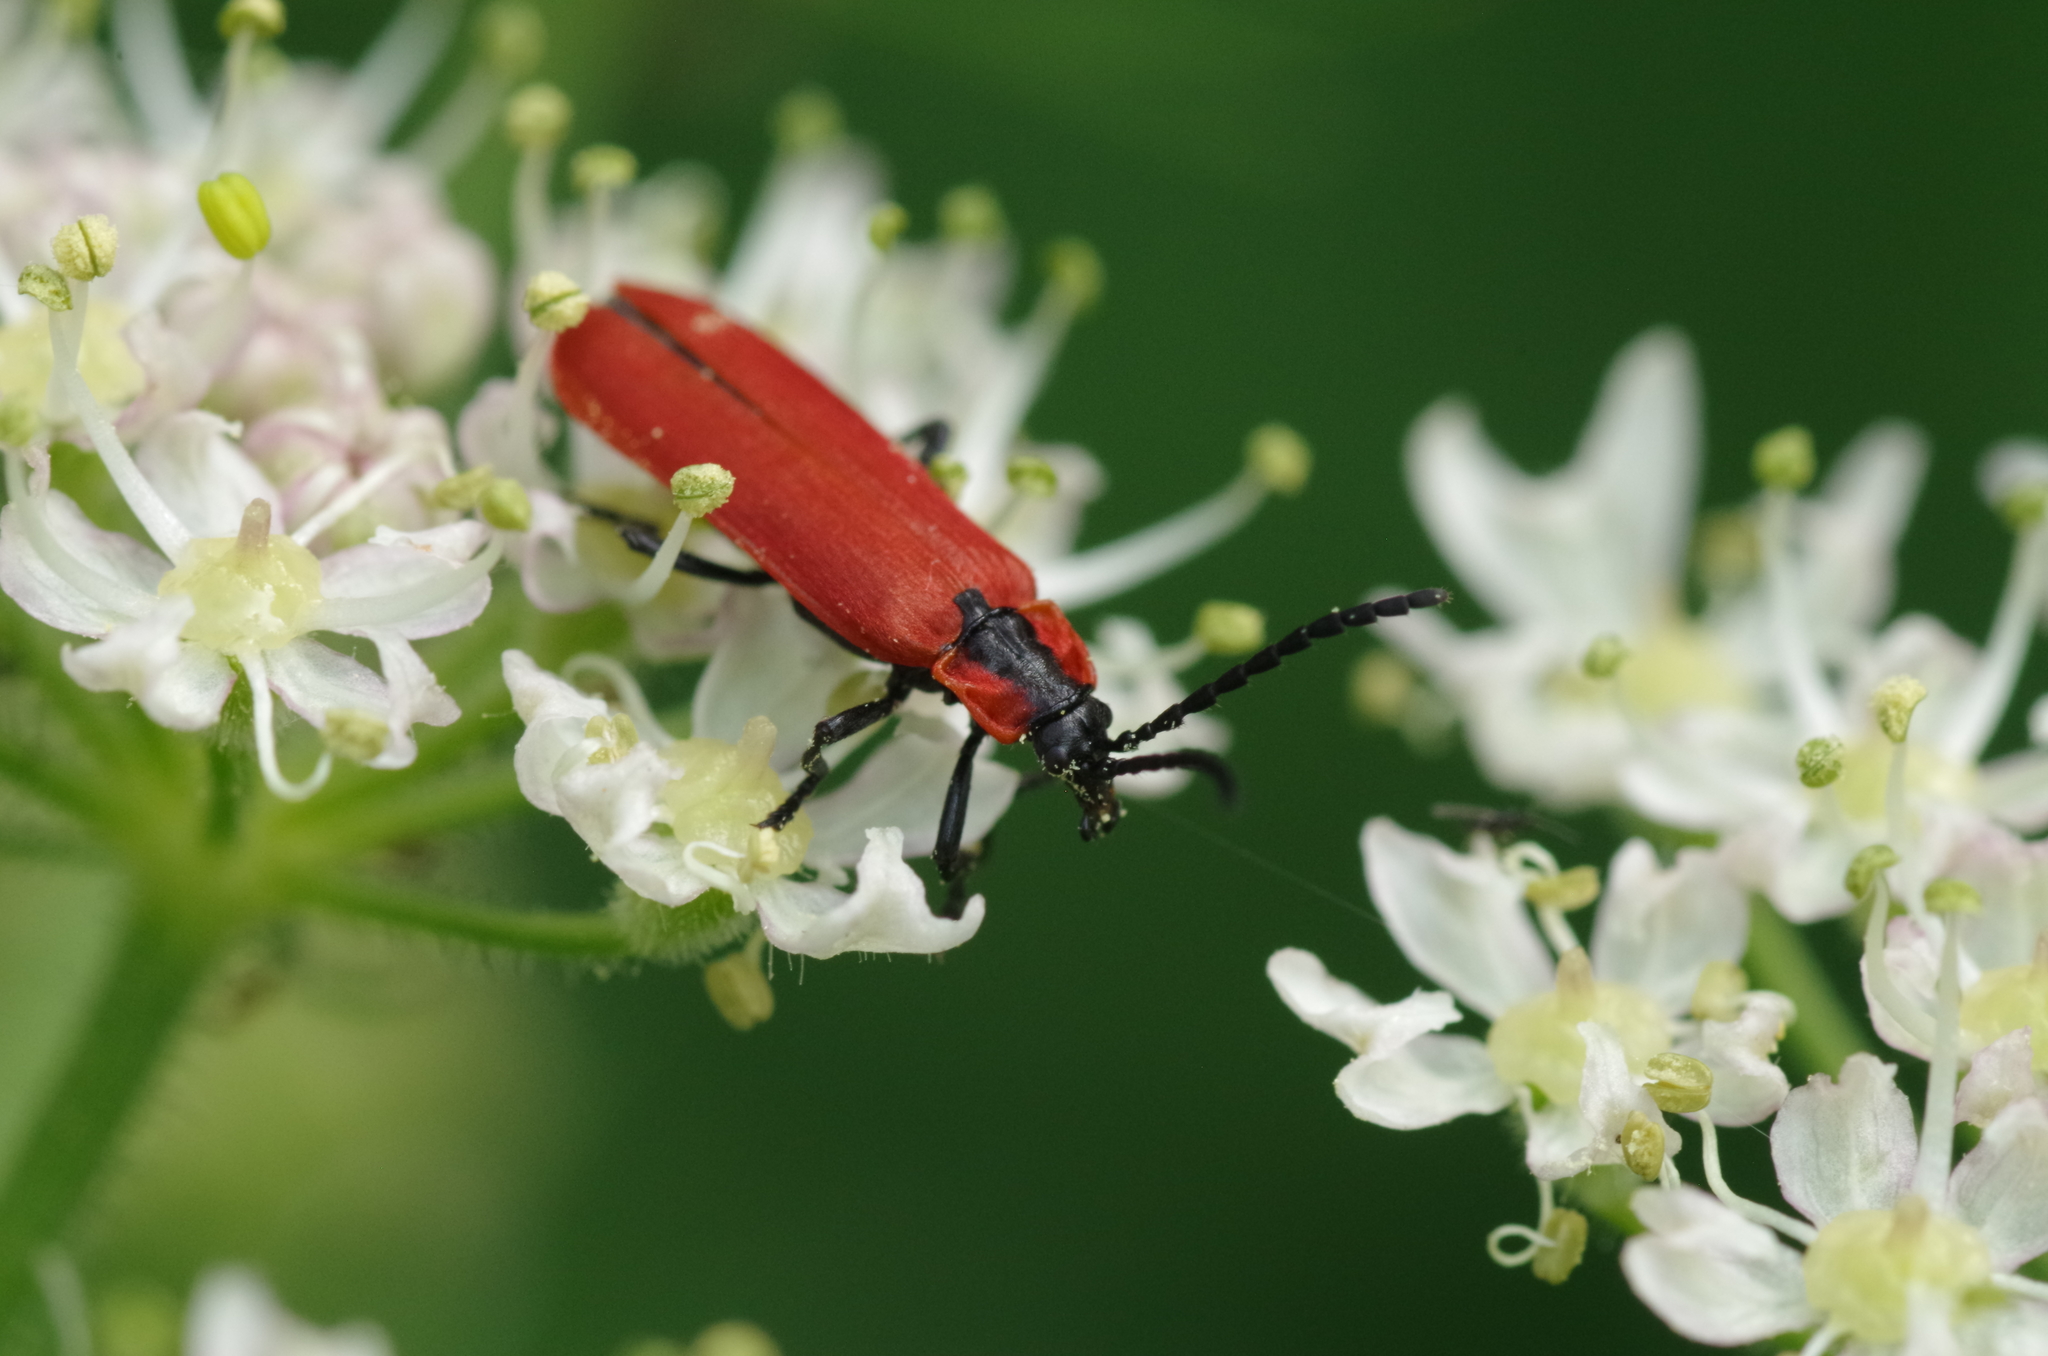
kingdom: Animalia
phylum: Arthropoda
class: Insecta
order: Coleoptera
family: Lycidae
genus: Lygistopterus
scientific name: Lygistopterus sanguineus
